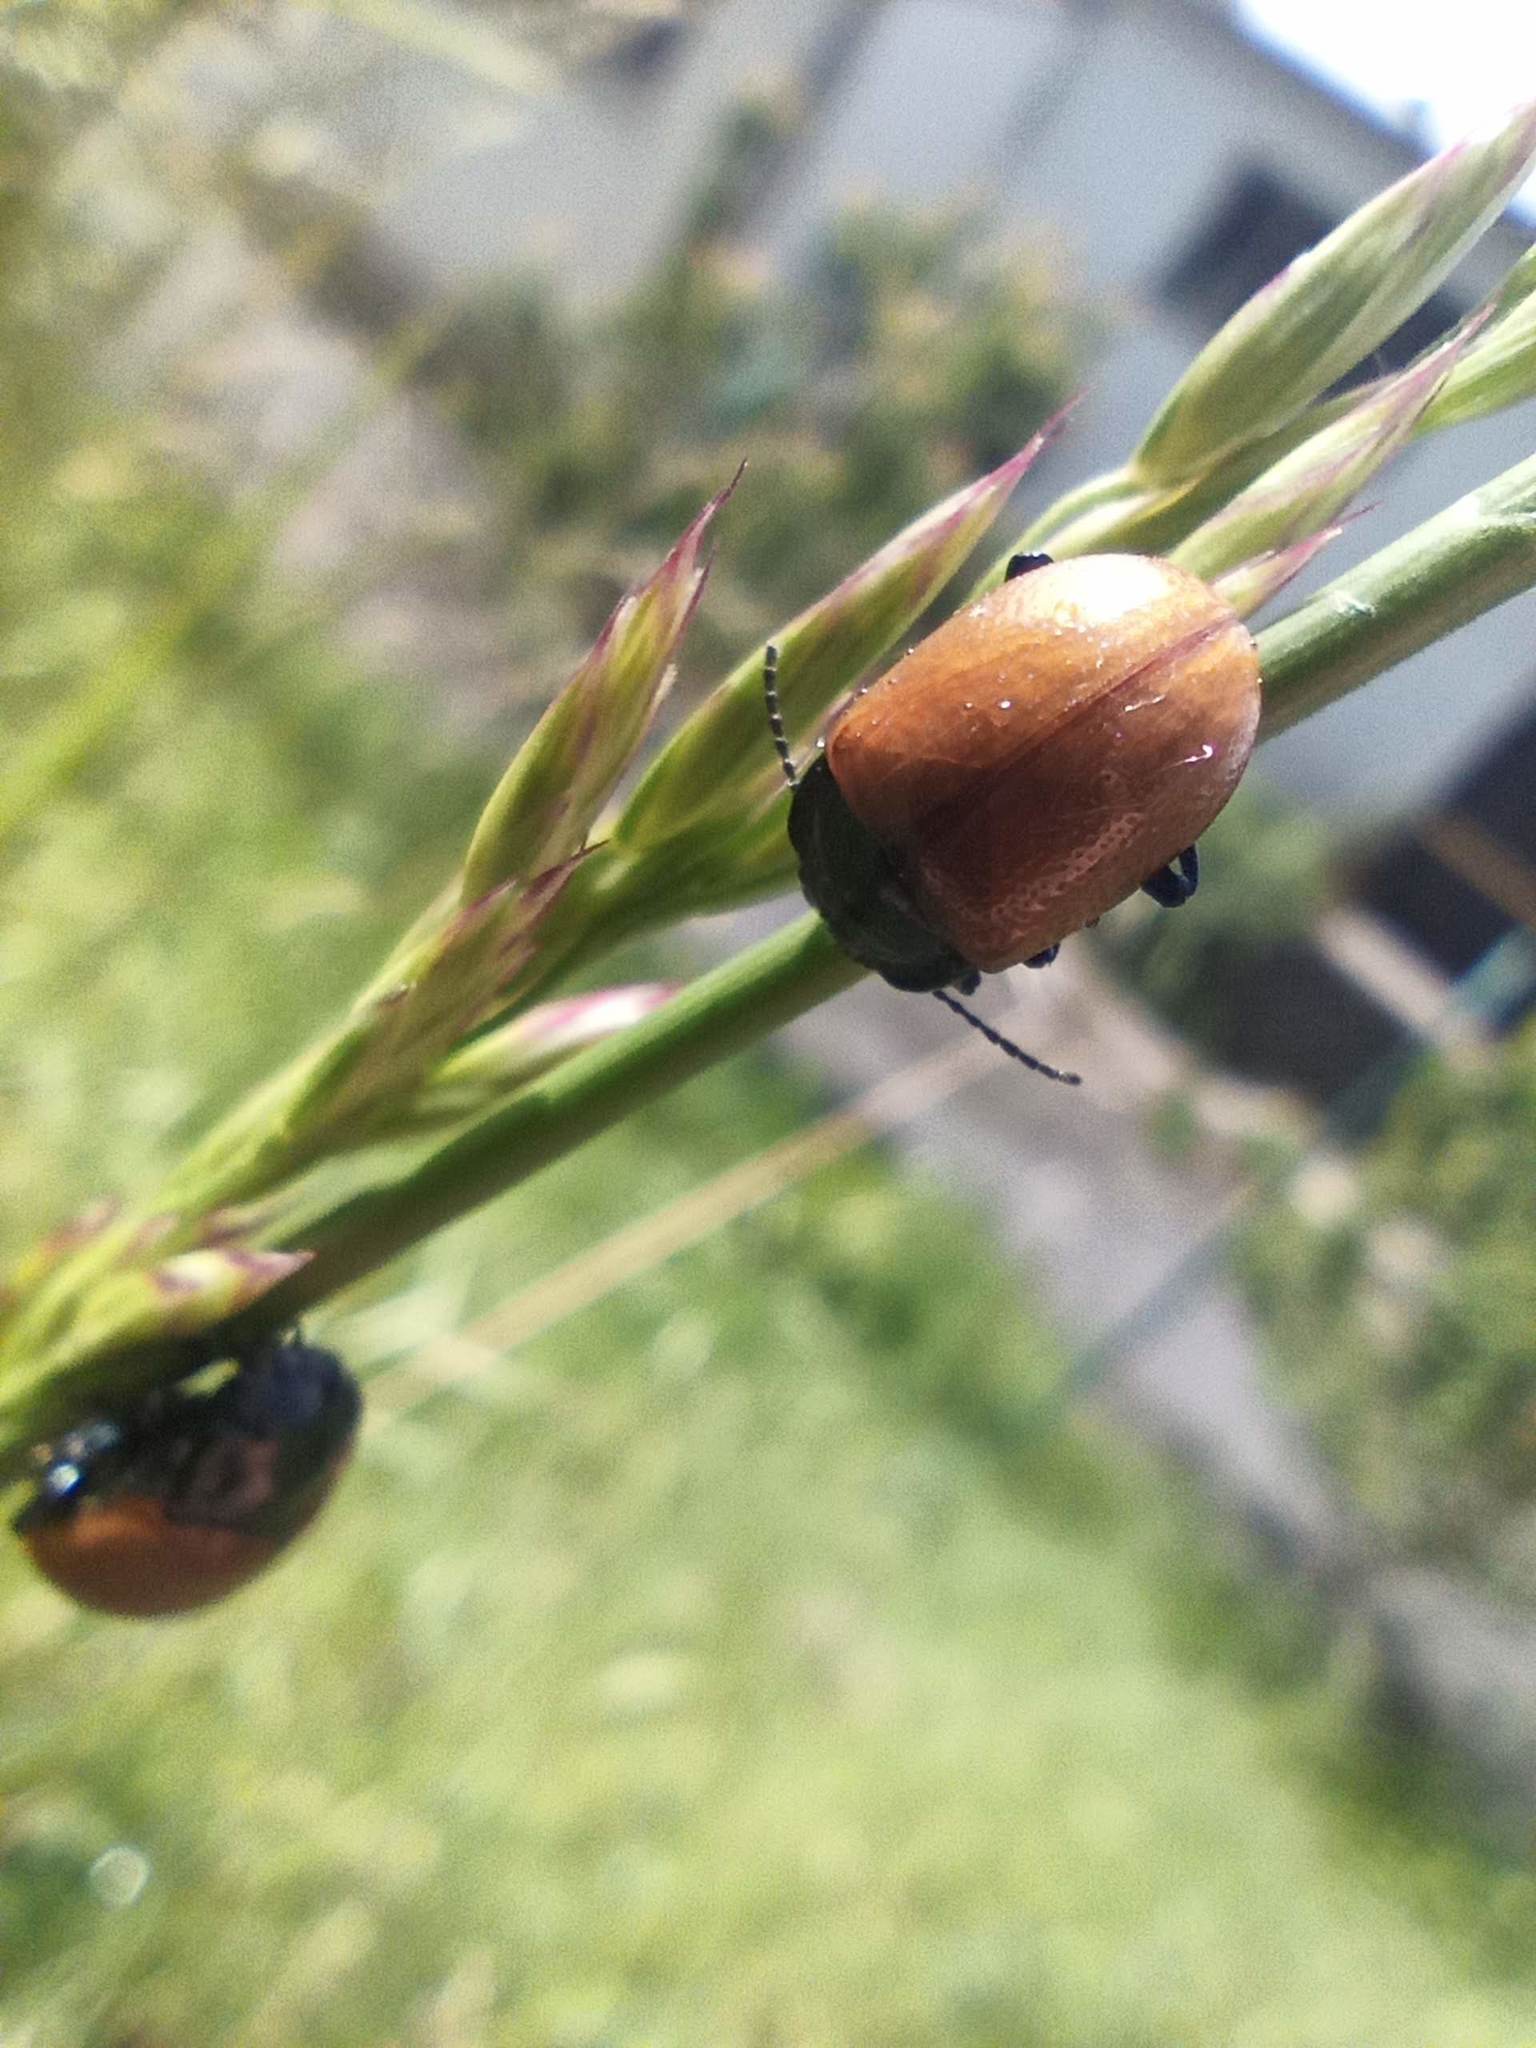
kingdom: Animalia
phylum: Arthropoda
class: Insecta
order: Coleoptera
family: Chrysomelidae
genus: Chrysolina
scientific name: Chrysolina lucida
